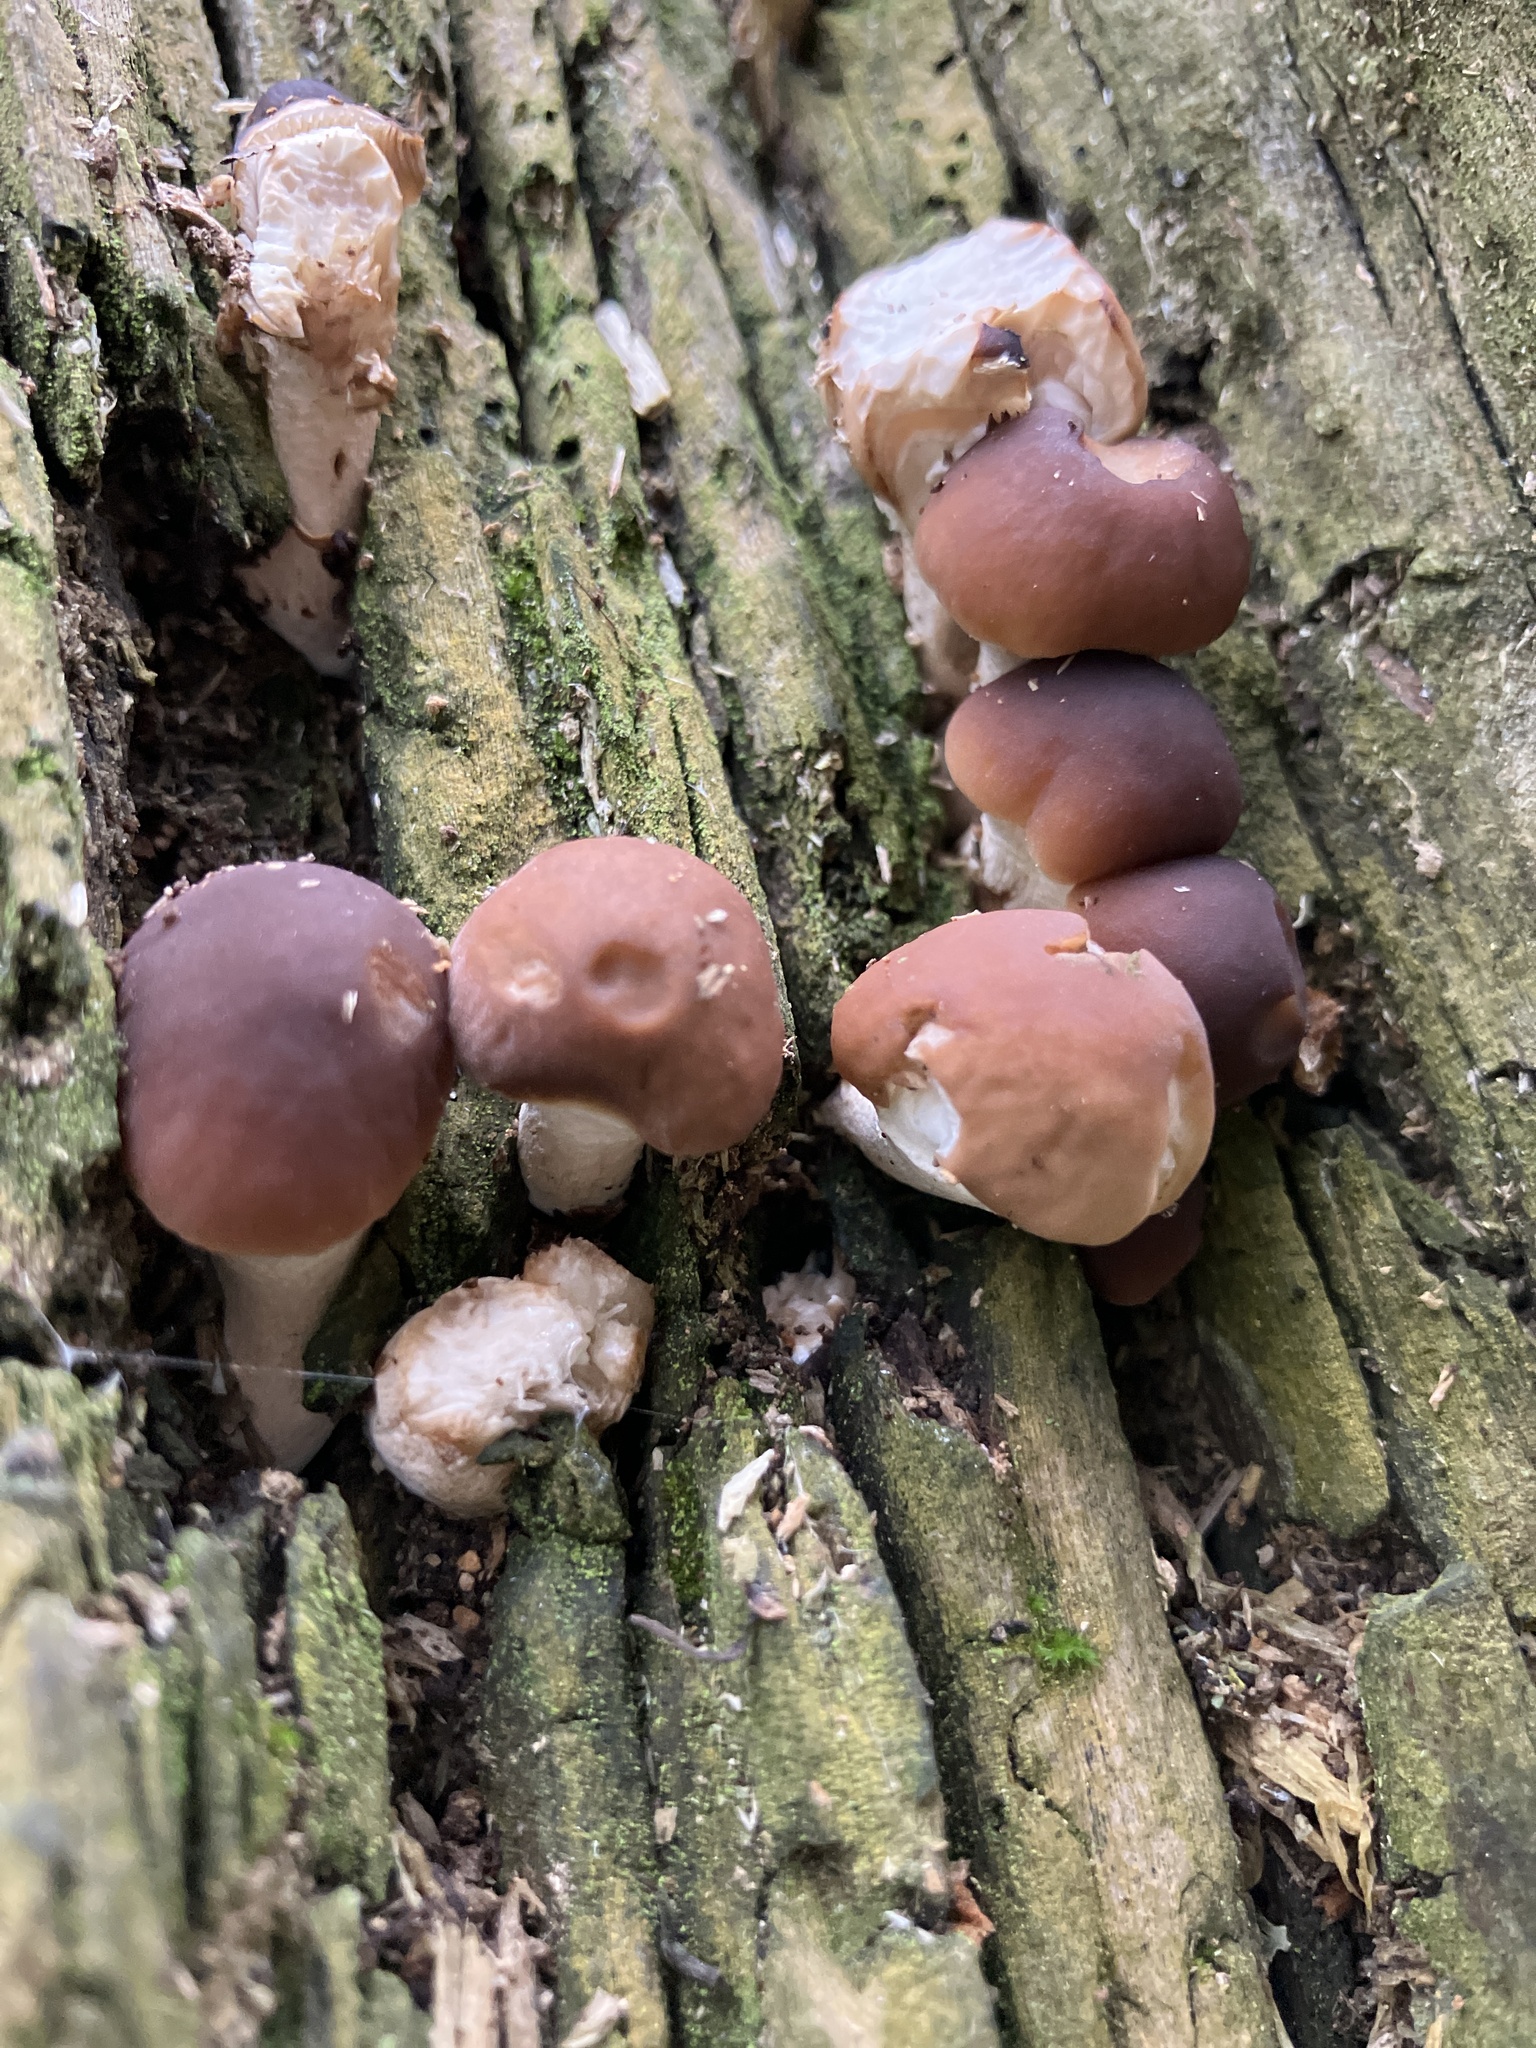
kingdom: Fungi
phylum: Basidiomycota
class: Agaricomycetes
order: Agaricales
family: Tubariaceae
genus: Cyclocybe
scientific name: Cyclocybe cylindracea
